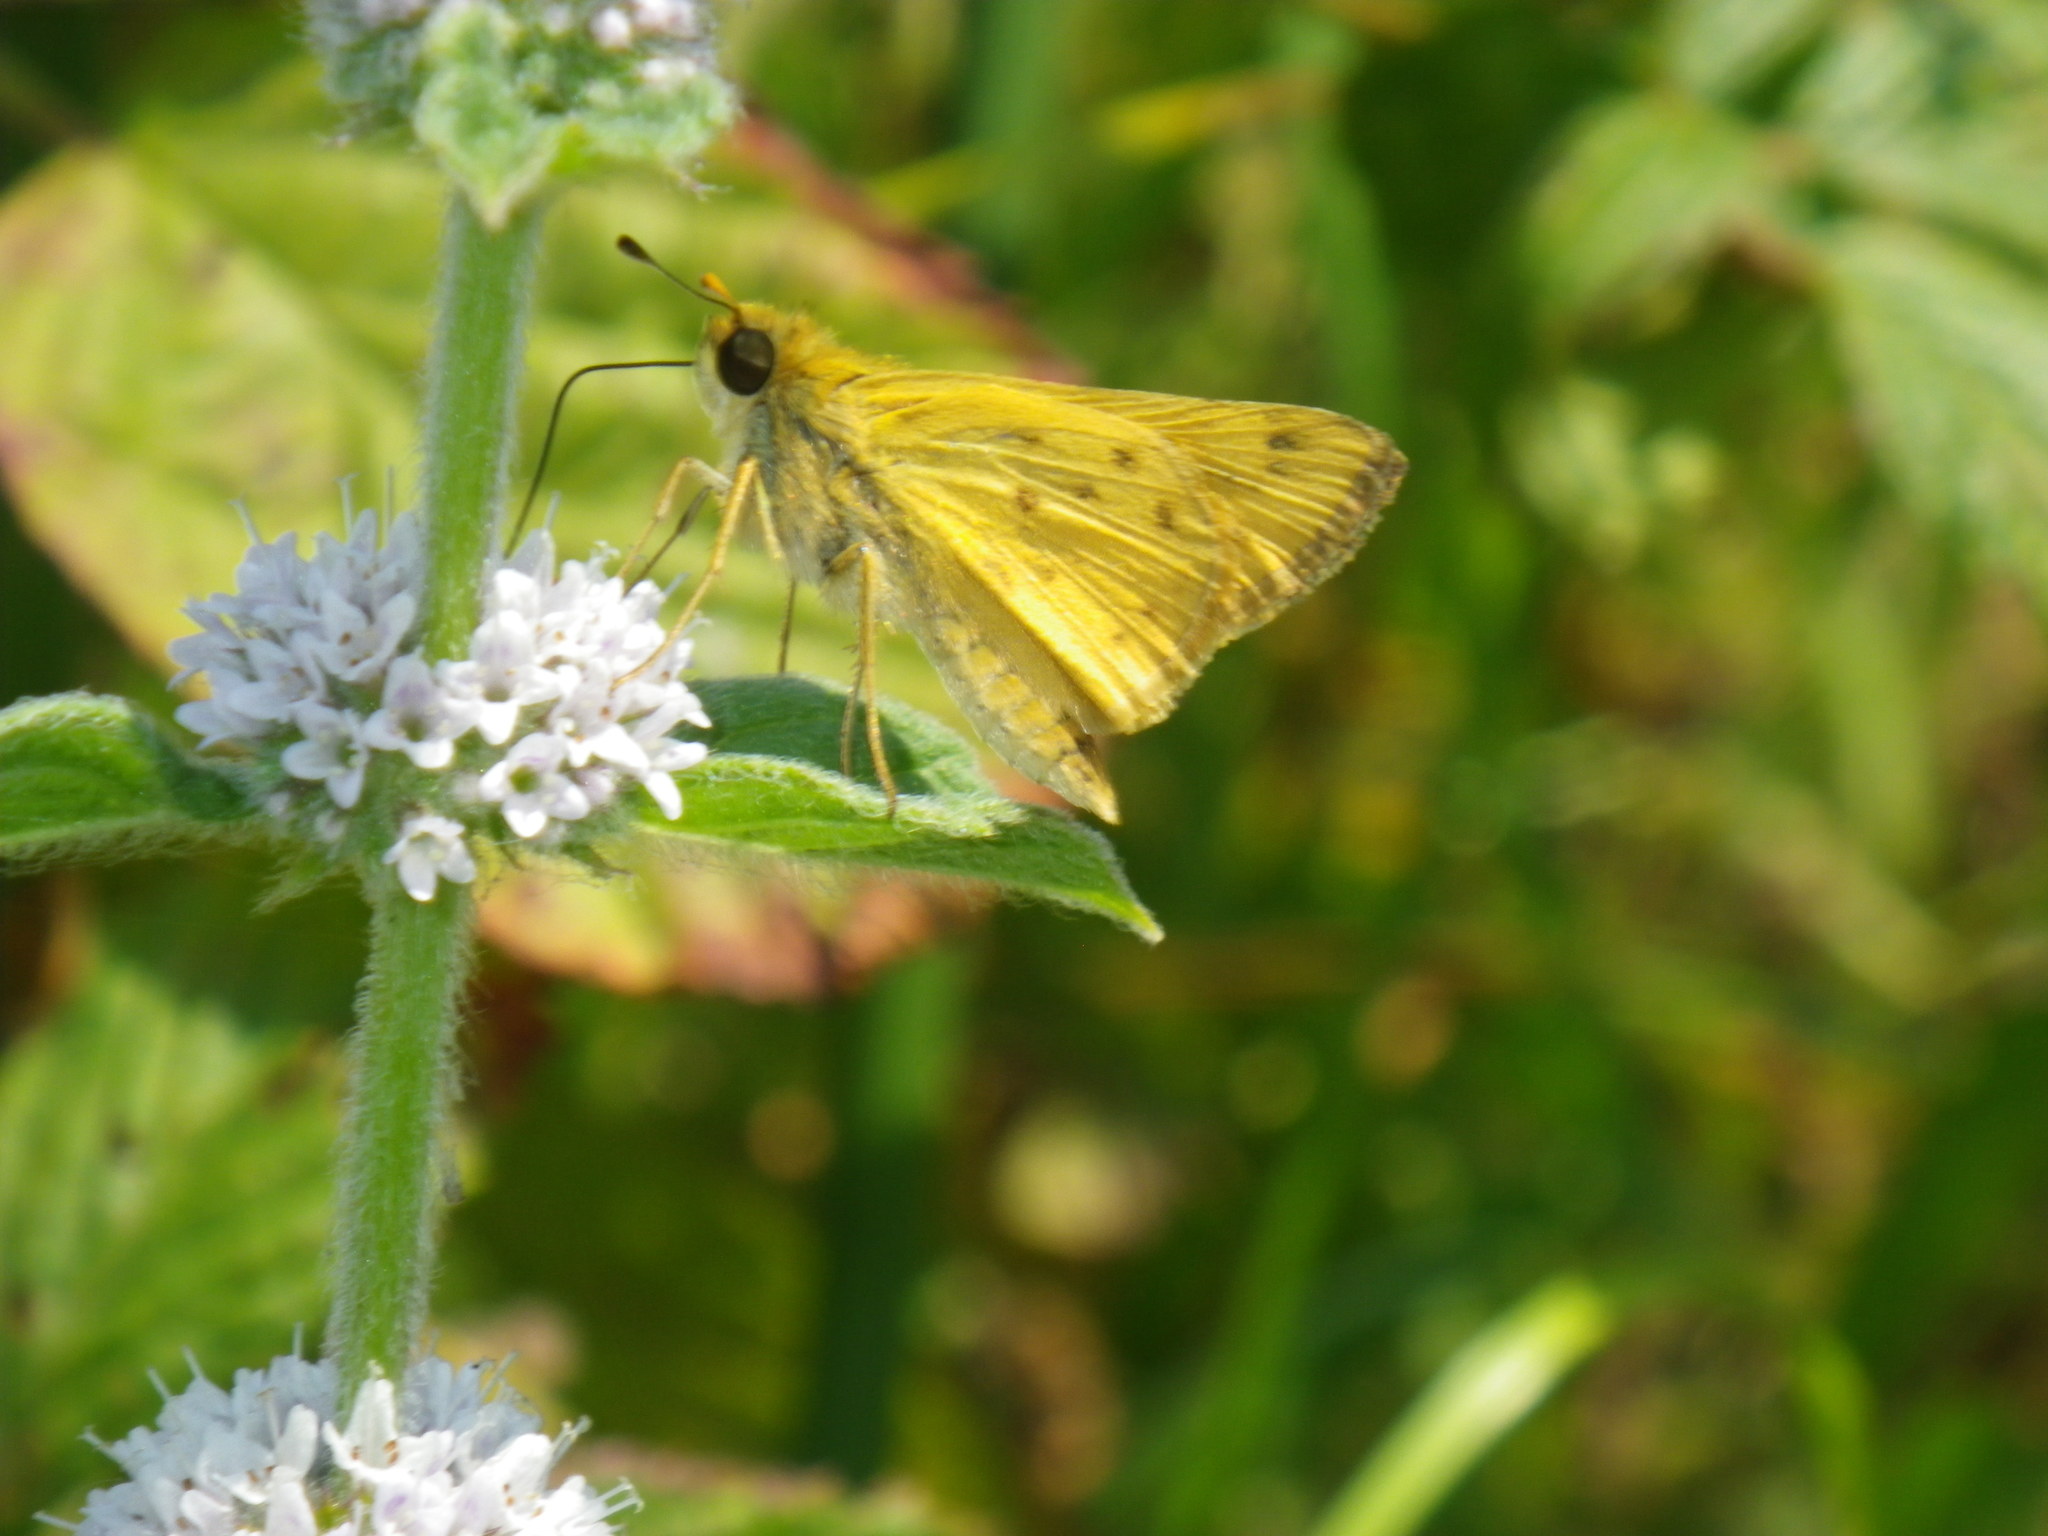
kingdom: Animalia
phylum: Arthropoda
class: Insecta
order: Lepidoptera
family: Hesperiidae
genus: Hylephila
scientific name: Hylephila phyleus
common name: Fiery skipper
